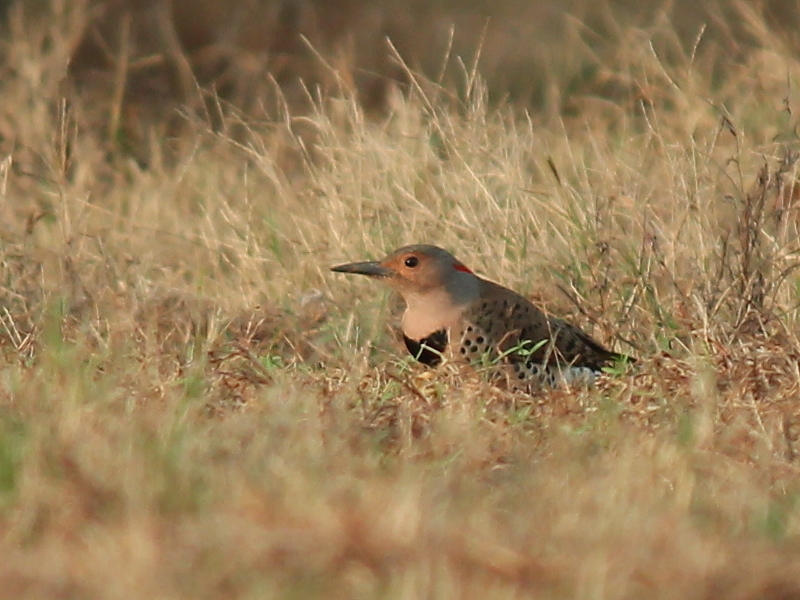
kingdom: Animalia
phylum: Chordata
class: Aves
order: Piciformes
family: Picidae
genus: Colaptes
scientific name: Colaptes auratus
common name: Northern flicker
